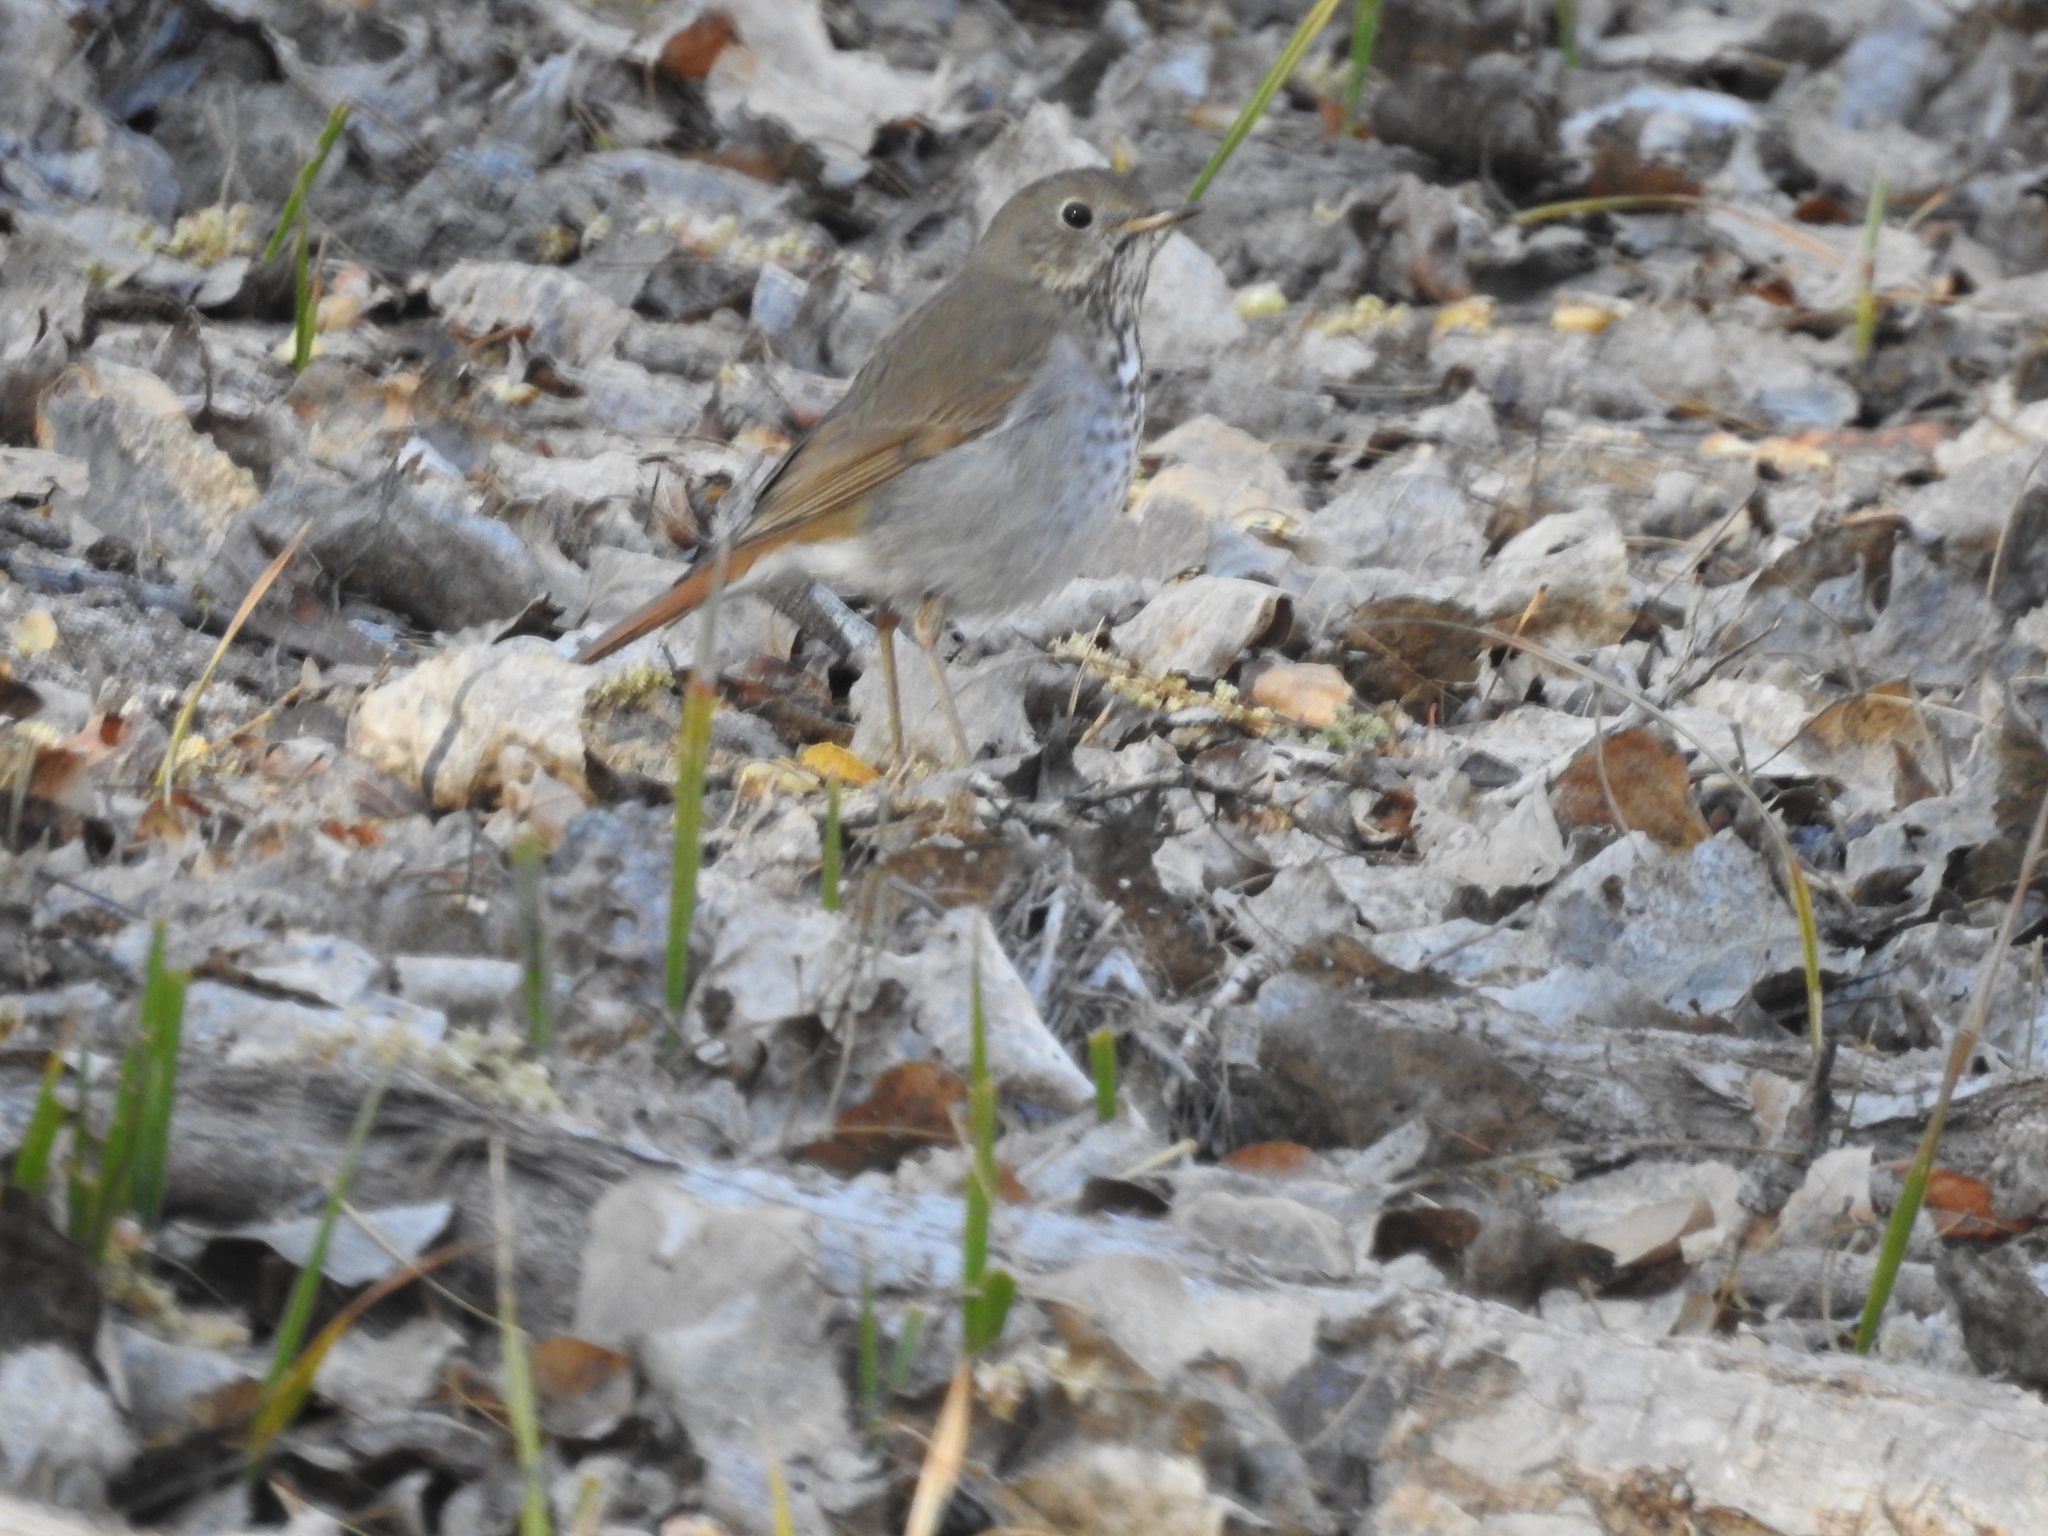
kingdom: Animalia
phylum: Chordata
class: Aves
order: Passeriformes
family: Turdidae
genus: Catharus
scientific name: Catharus guttatus
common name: Hermit thrush
